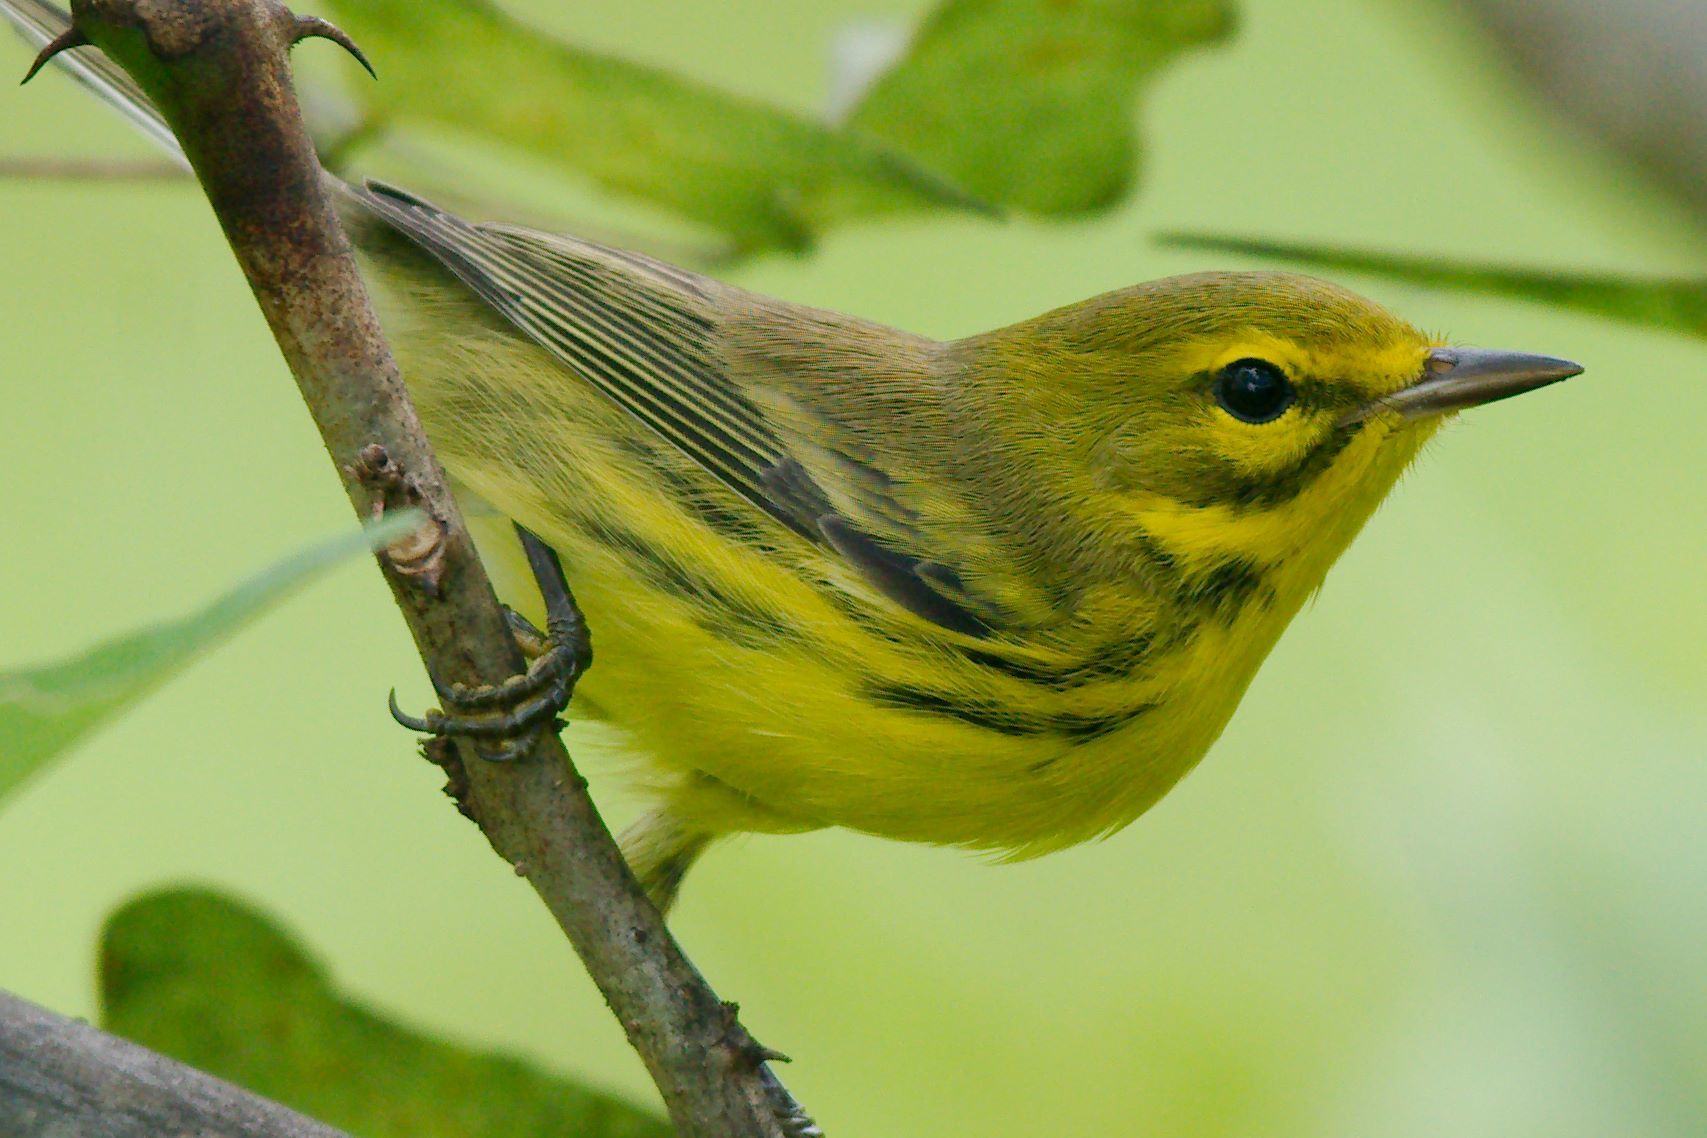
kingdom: Animalia
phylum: Chordata
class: Aves
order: Passeriformes
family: Parulidae
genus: Setophaga
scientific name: Setophaga discolor
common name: Prairie warbler
